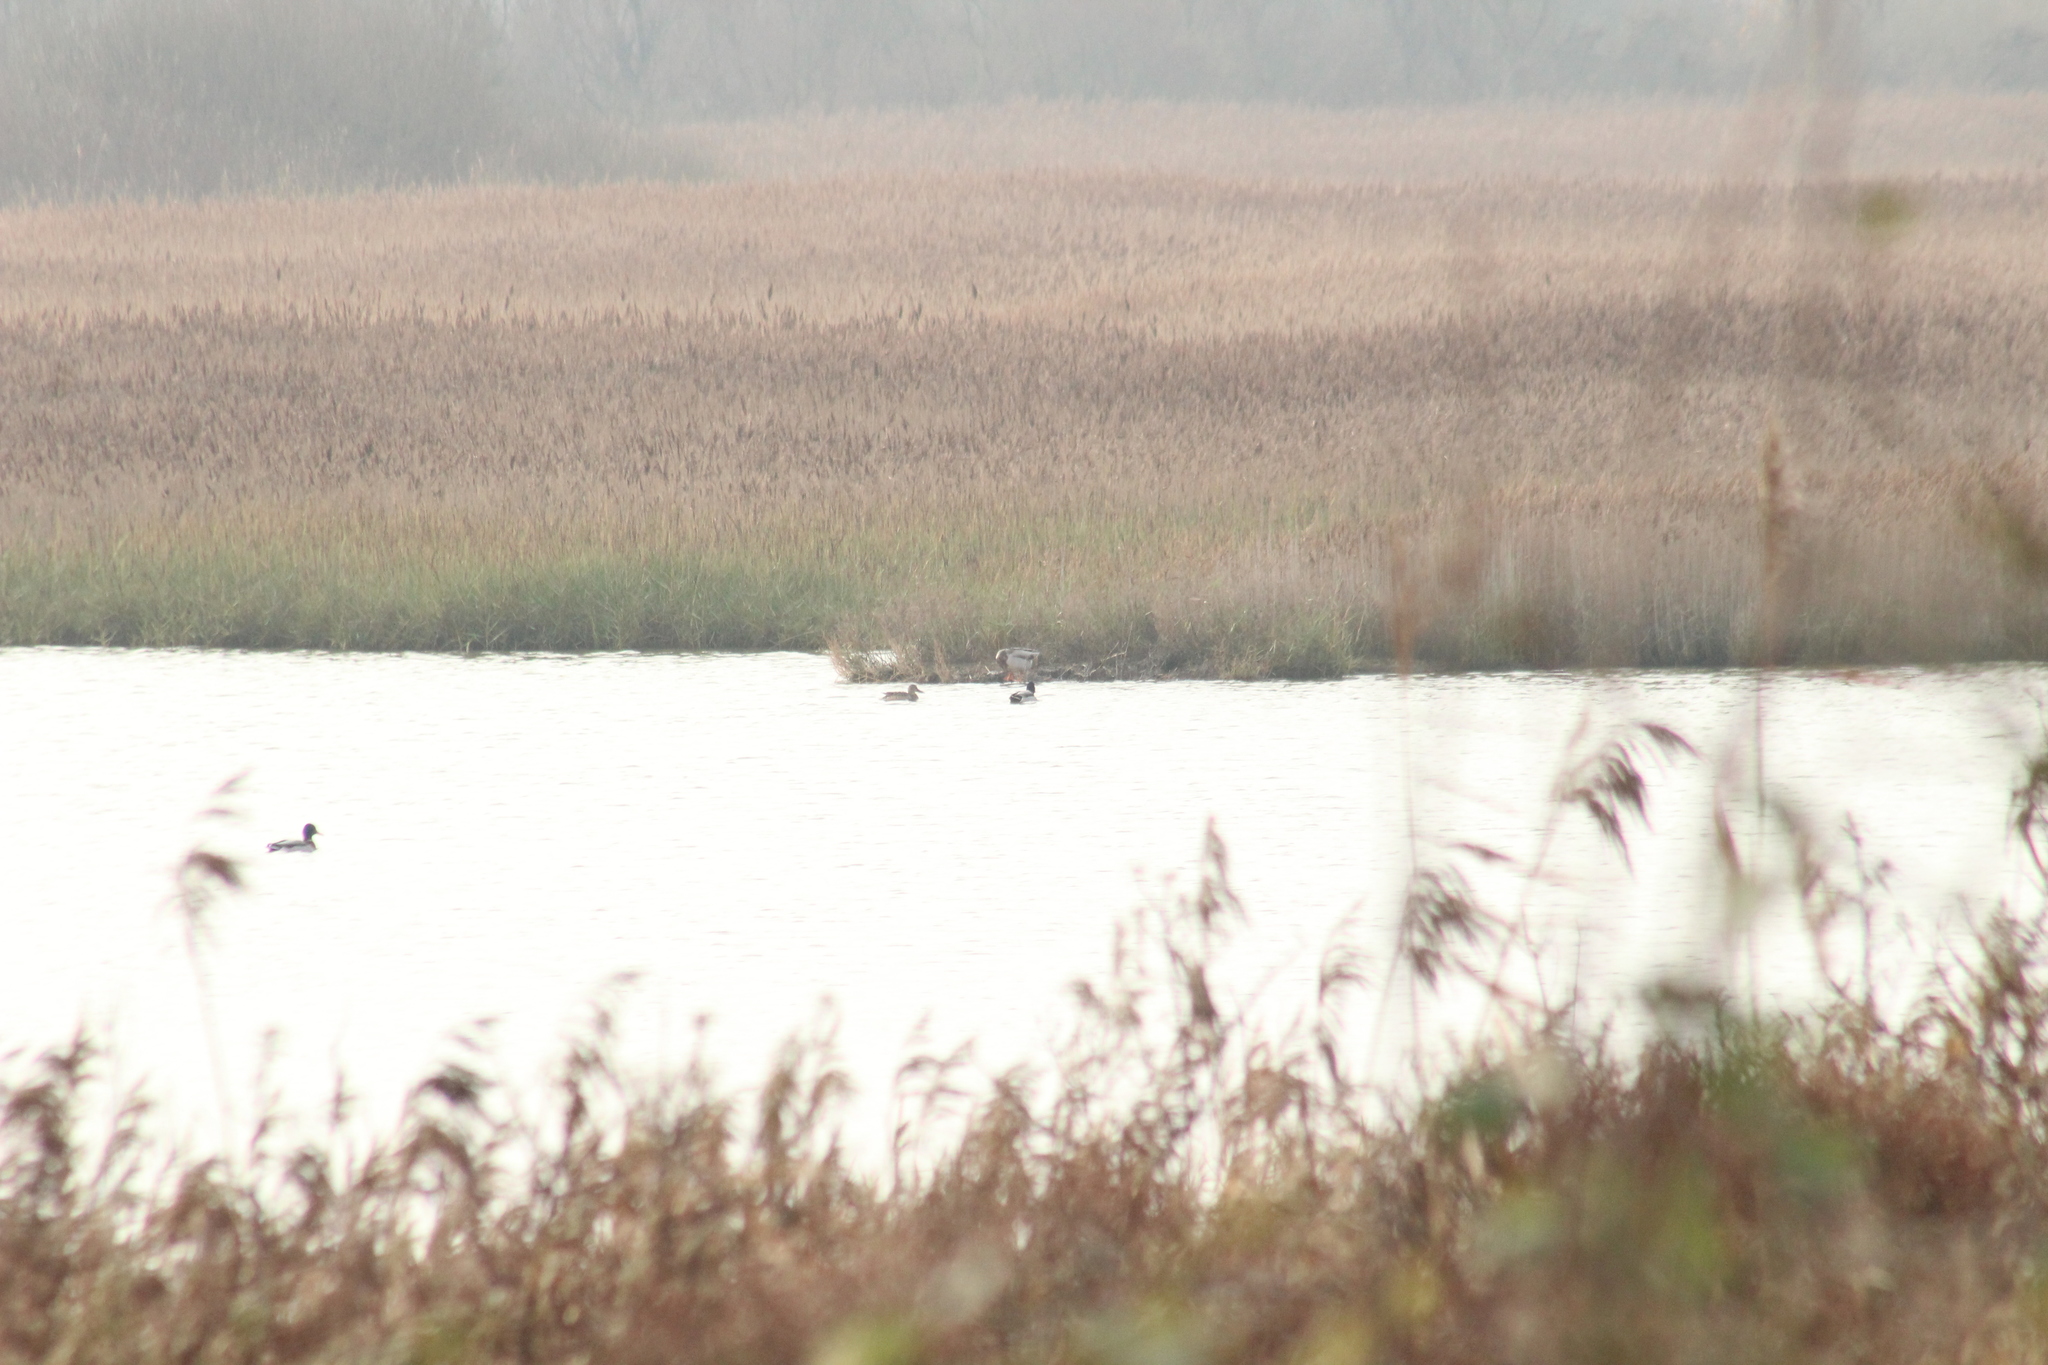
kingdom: Animalia
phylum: Chordata
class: Aves
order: Anseriformes
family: Anatidae
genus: Anas
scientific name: Anas platyrhynchos
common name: Mallard
